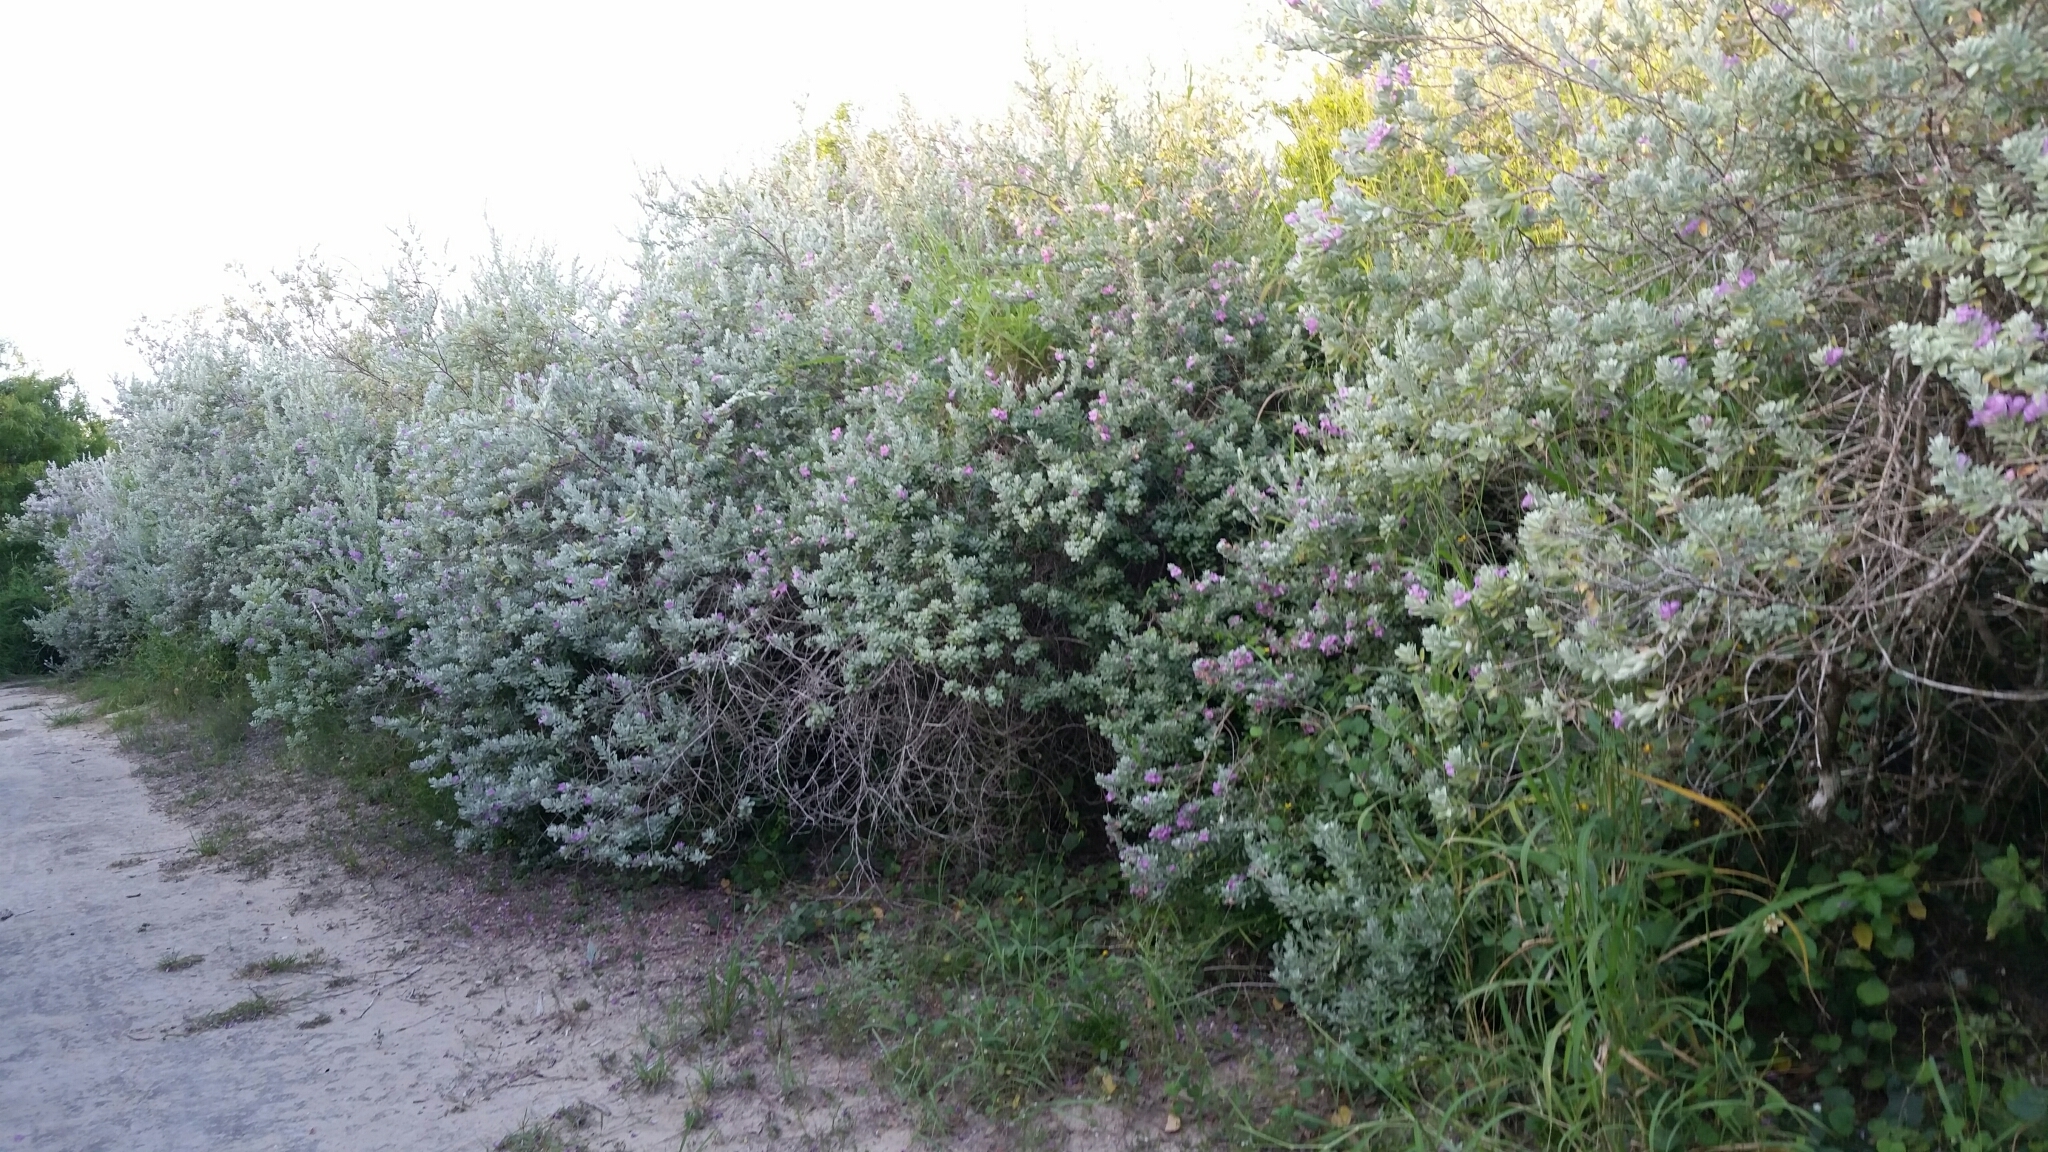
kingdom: Plantae
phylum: Tracheophyta
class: Magnoliopsida
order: Lamiales
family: Scrophulariaceae
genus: Leucophyllum
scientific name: Leucophyllum frutescens
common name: Texas silverleaf
